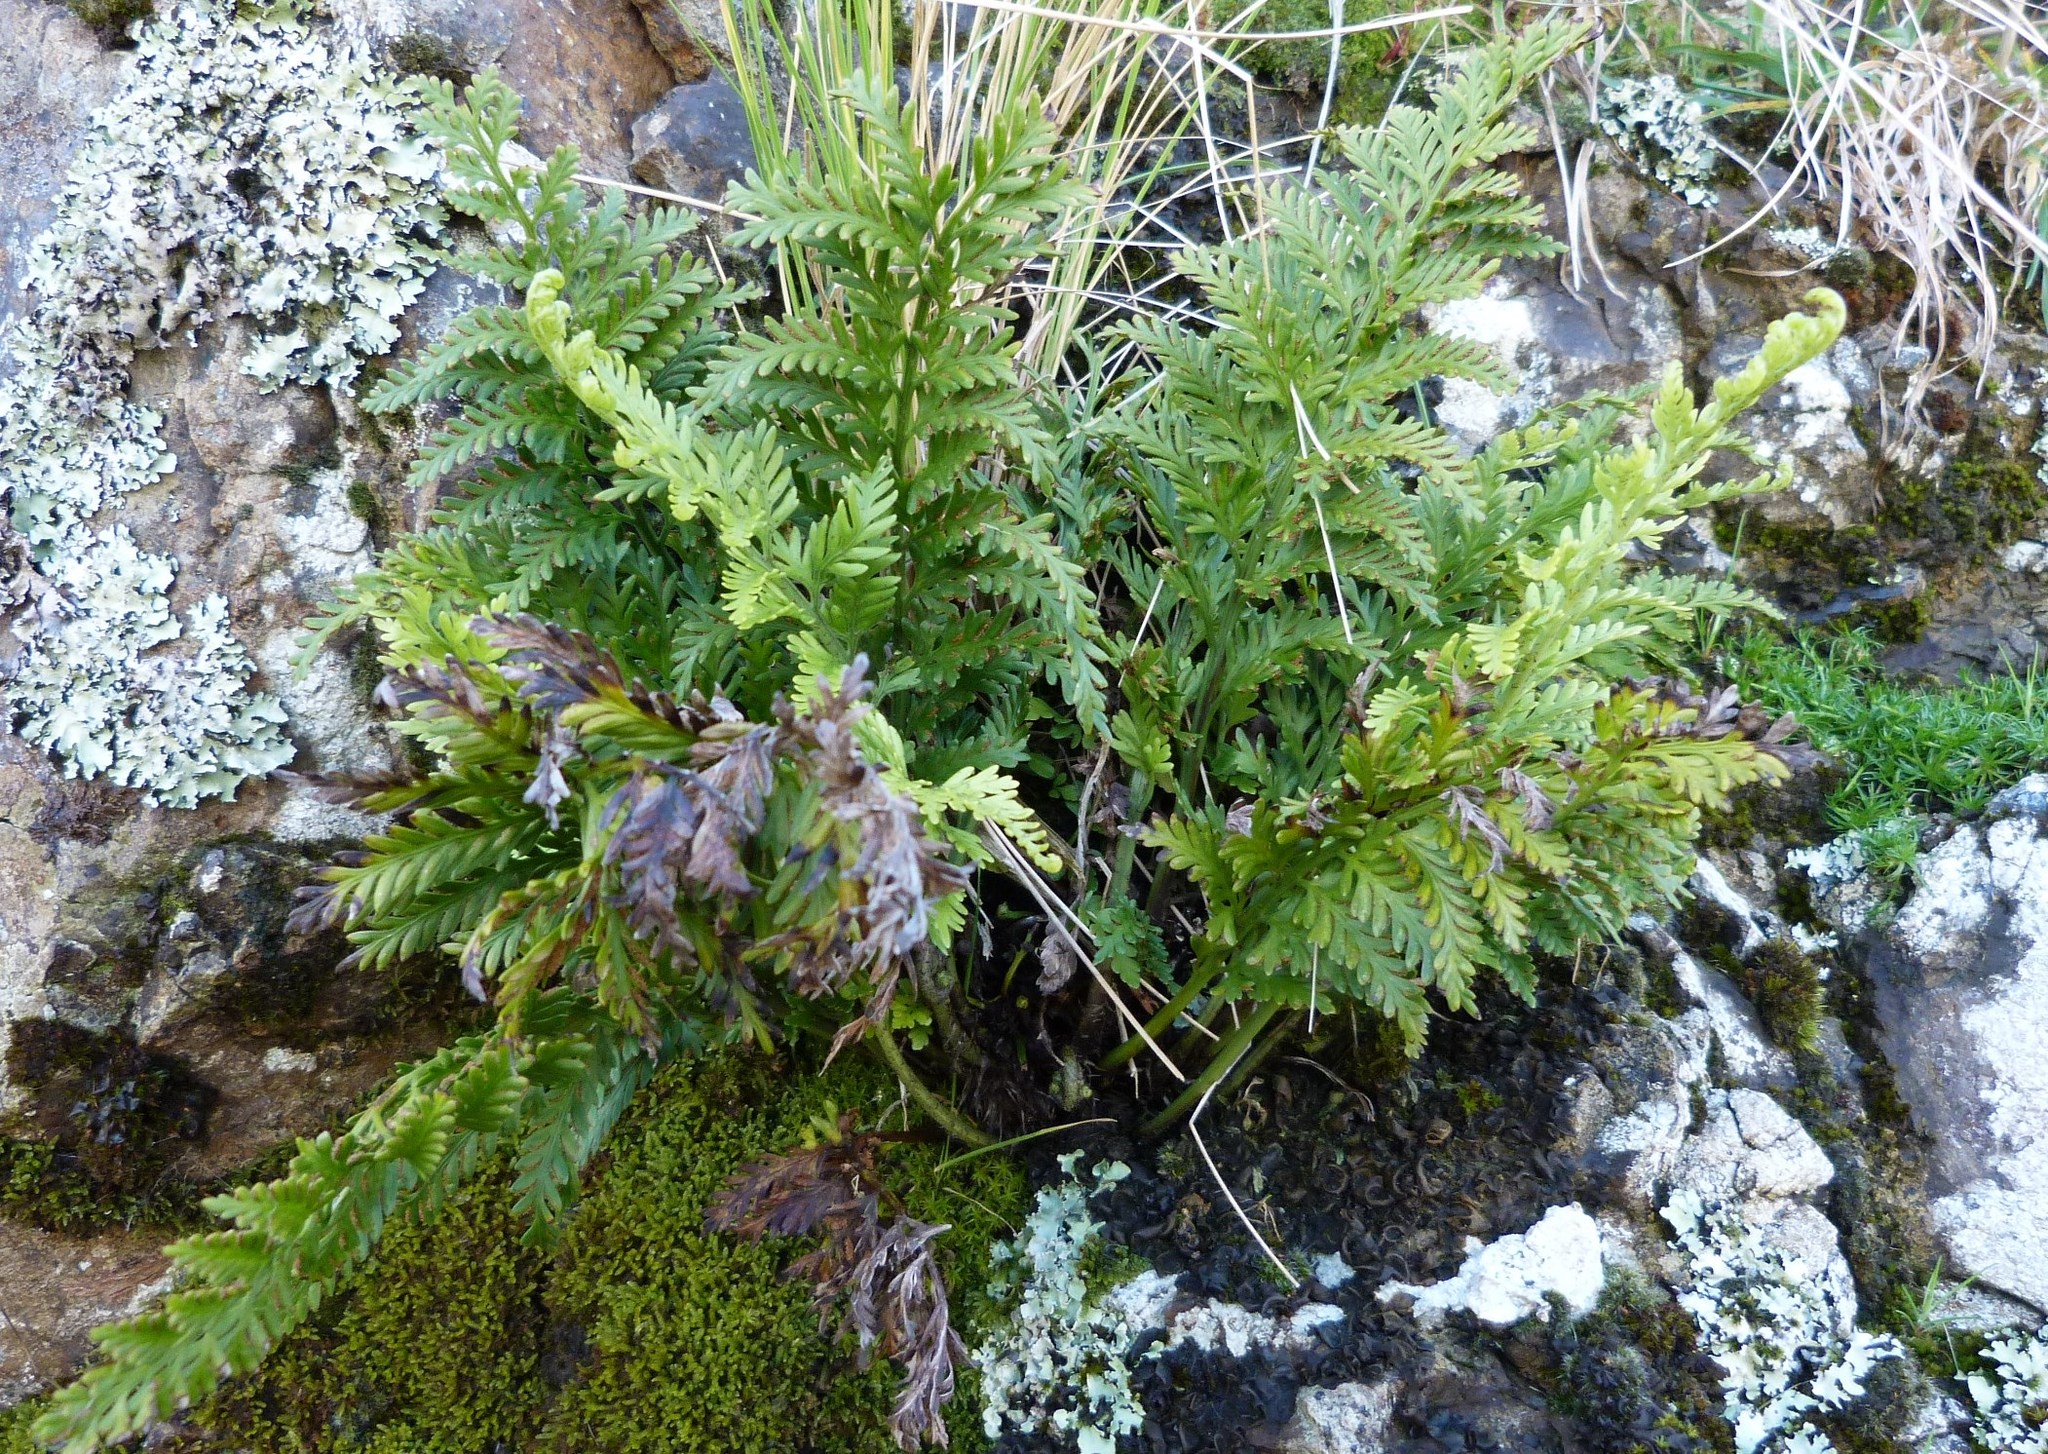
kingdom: Plantae
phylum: Tracheophyta
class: Polypodiopsida
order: Polypodiales
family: Aspleniaceae
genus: Asplenium
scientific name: Asplenium appendiculatum
